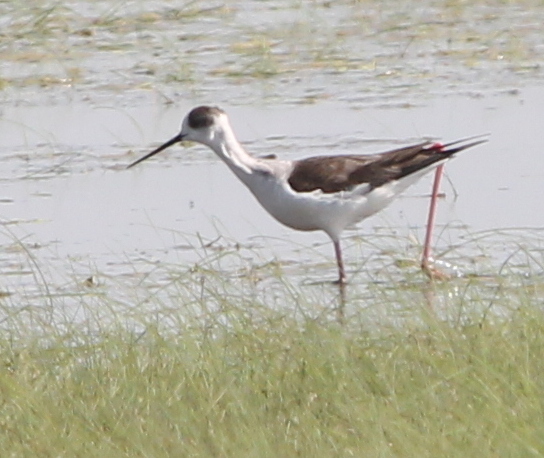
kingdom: Animalia
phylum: Chordata
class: Aves
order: Charadriiformes
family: Recurvirostridae
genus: Himantopus
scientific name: Himantopus himantopus
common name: Black-winged stilt
